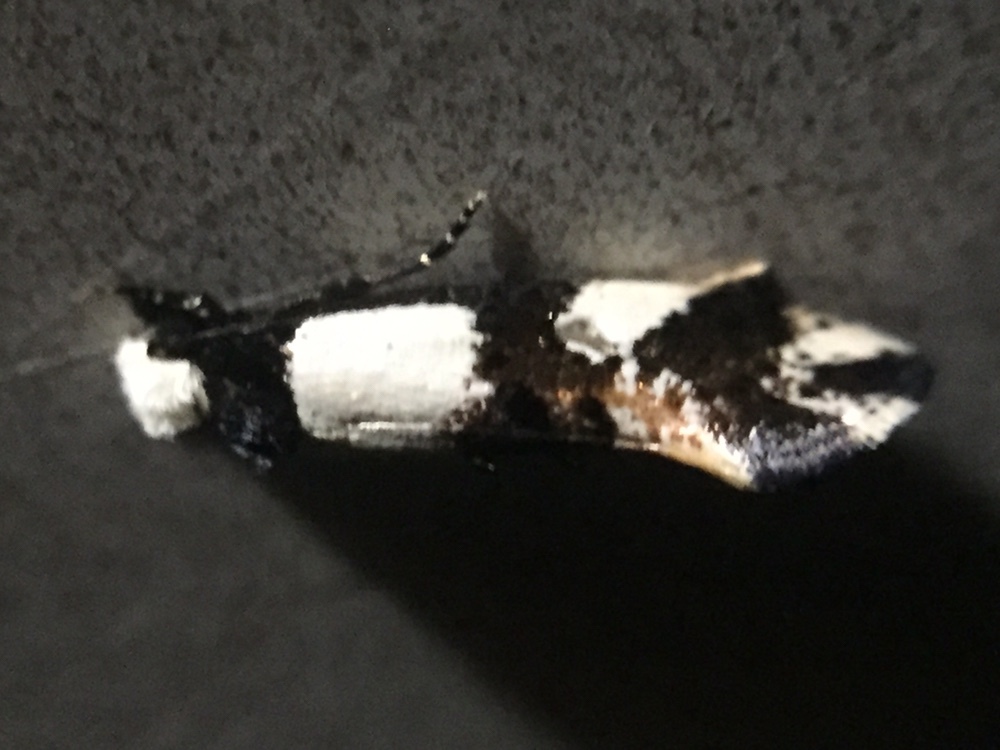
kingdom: Animalia
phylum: Arthropoda
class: Insecta
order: Lepidoptera
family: Tineidae
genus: Monopis
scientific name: Monopis icterogastra
